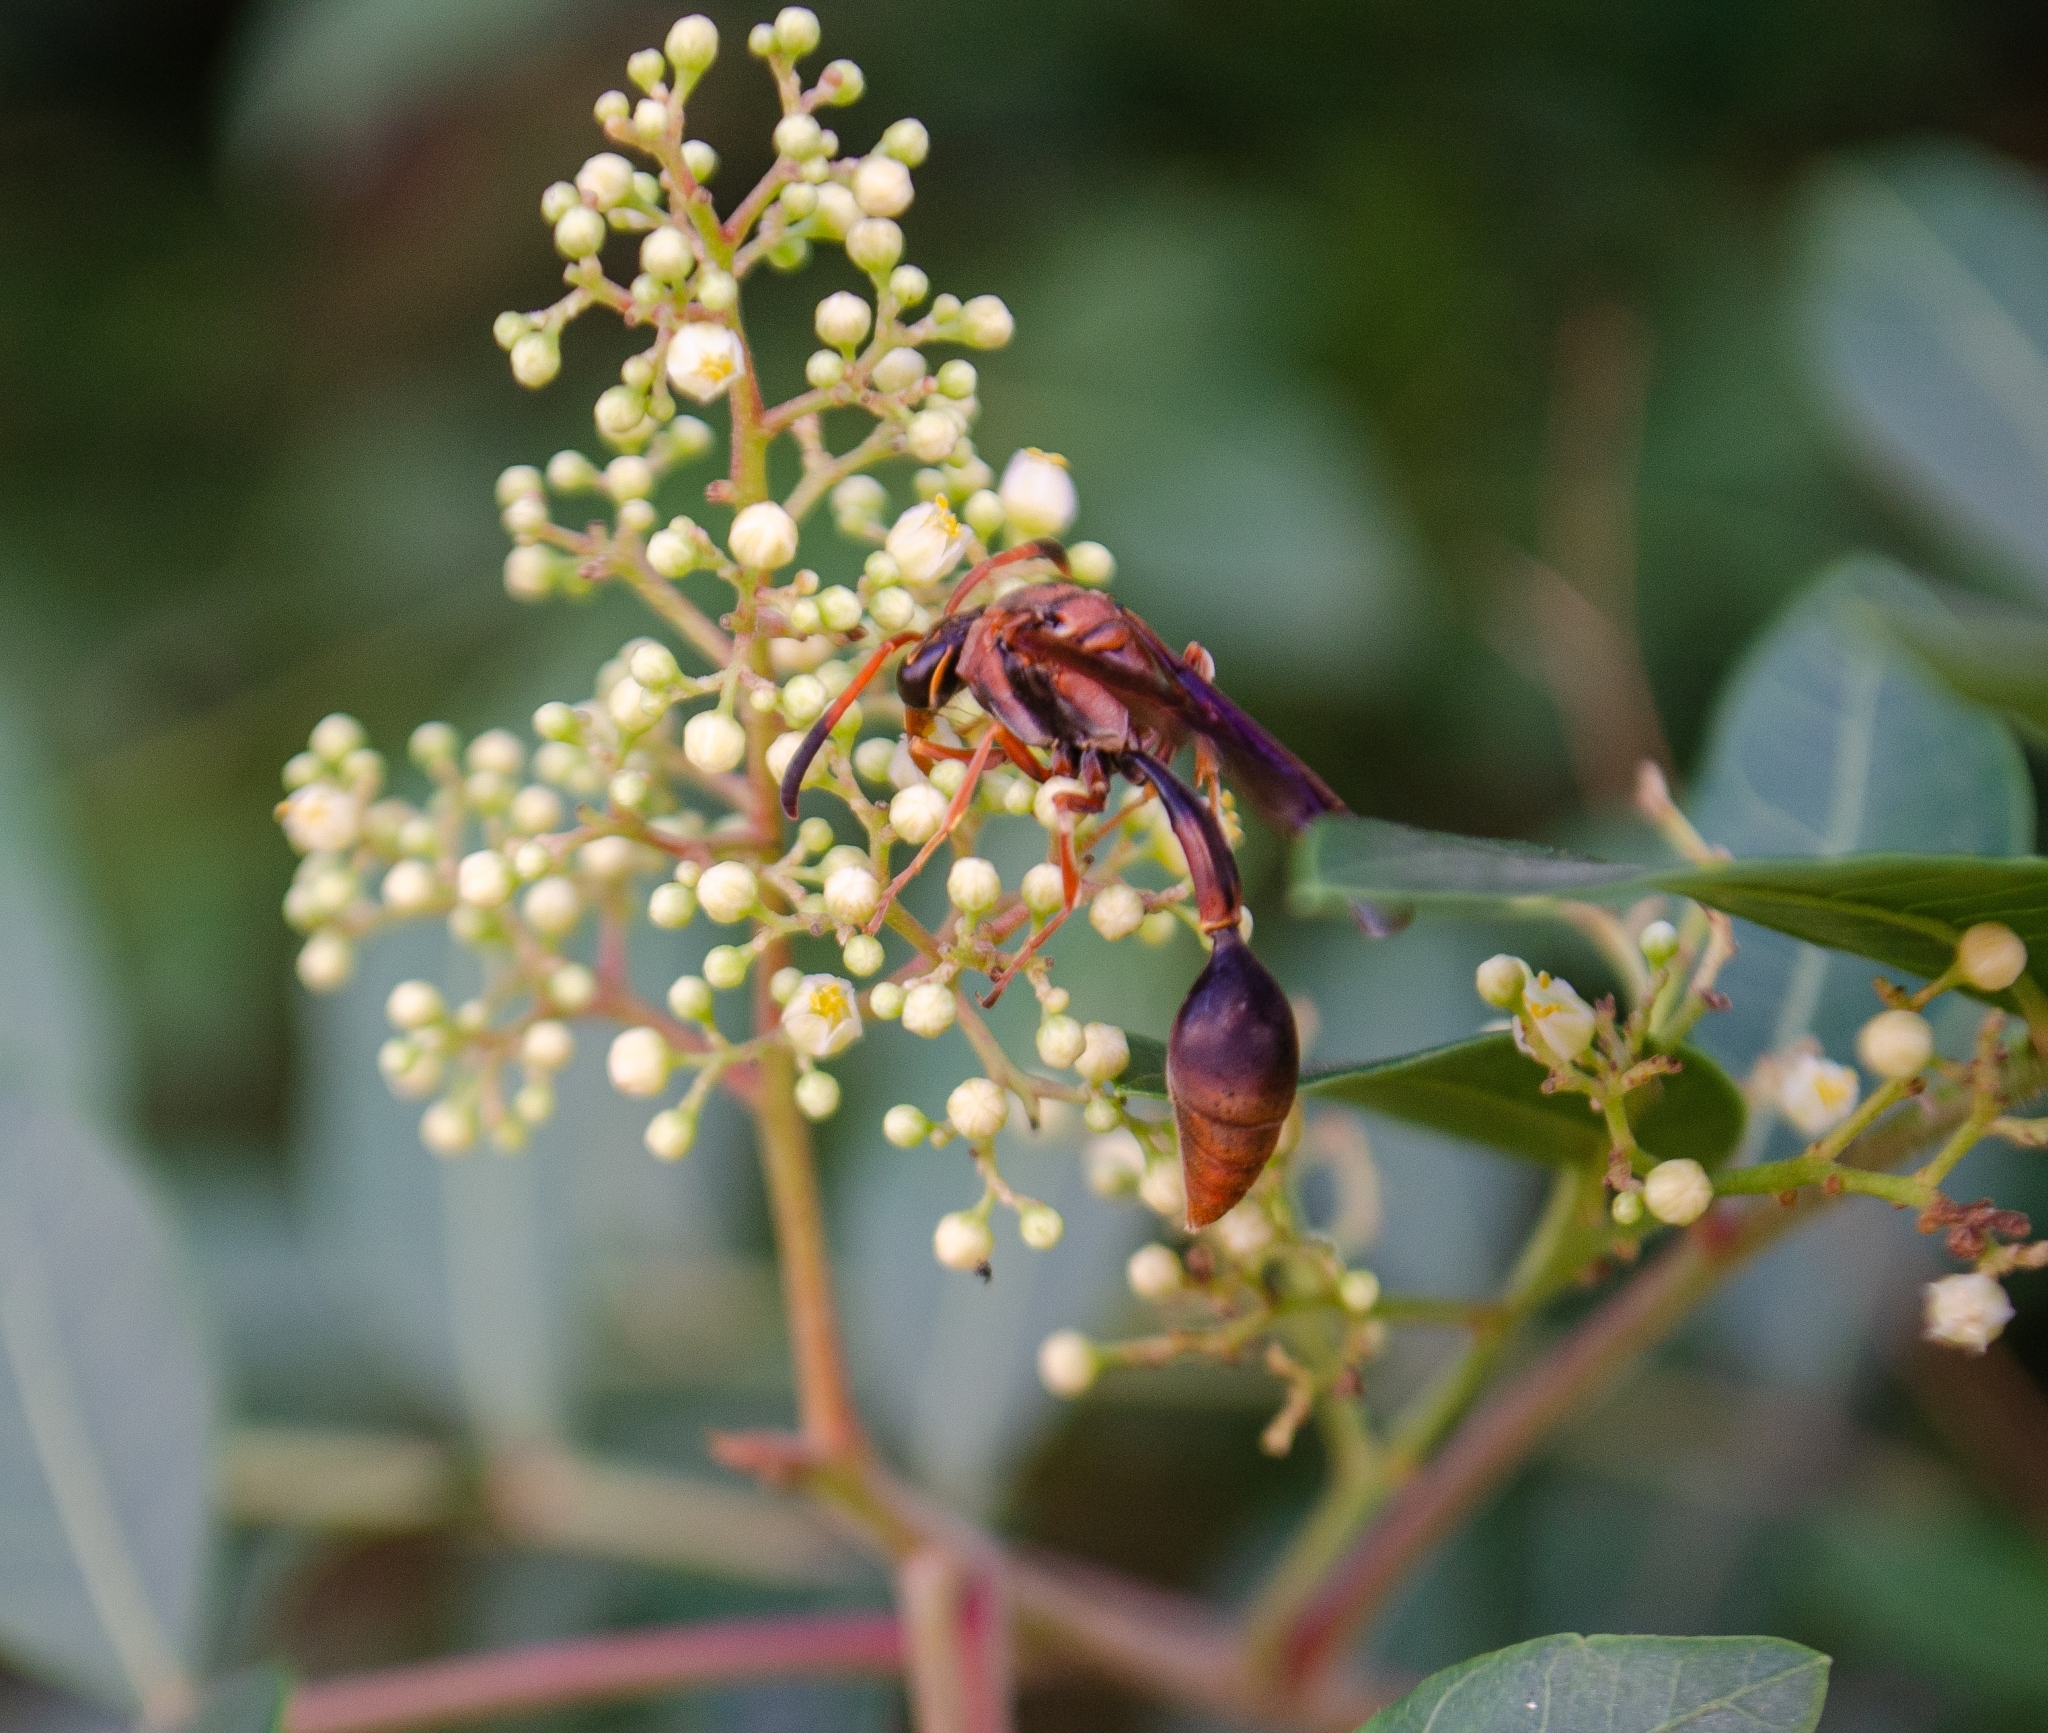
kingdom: Animalia
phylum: Arthropoda
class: Insecta
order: Hymenoptera
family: Eumenidae
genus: Zeta
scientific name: Zeta argillaceum
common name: Potter wasp
